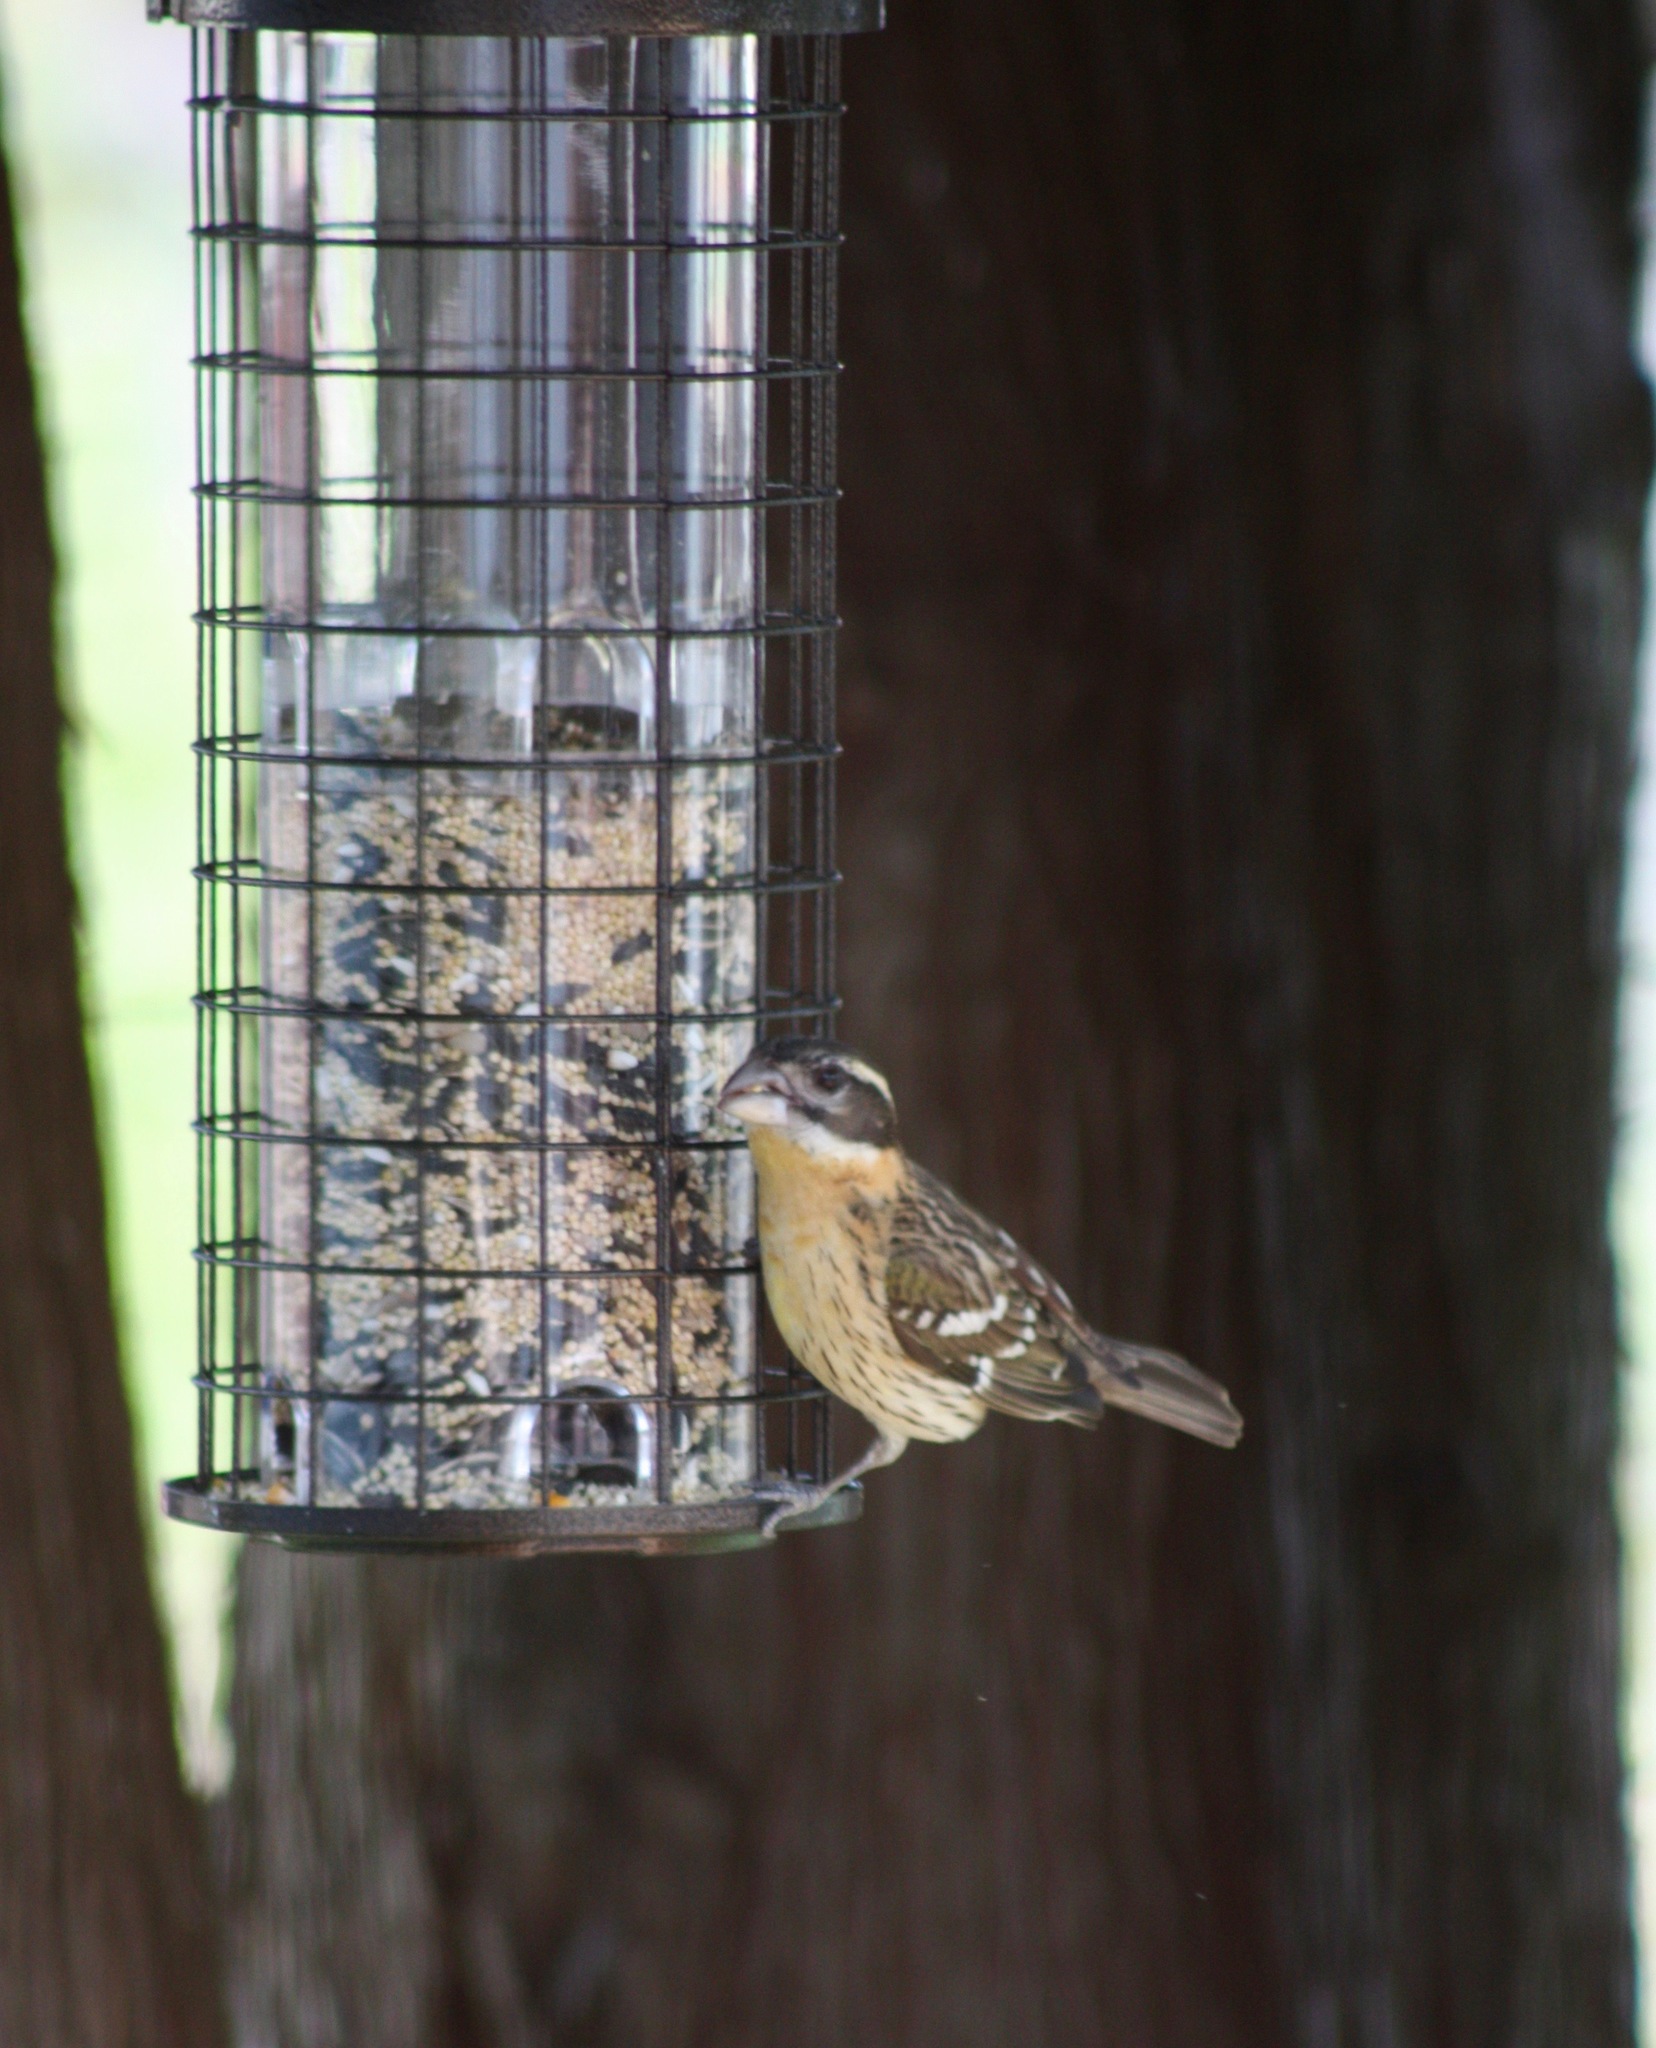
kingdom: Animalia
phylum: Chordata
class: Aves
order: Passeriformes
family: Cardinalidae
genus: Pheucticus
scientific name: Pheucticus melanocephalus
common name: Black-headed grosbeak
